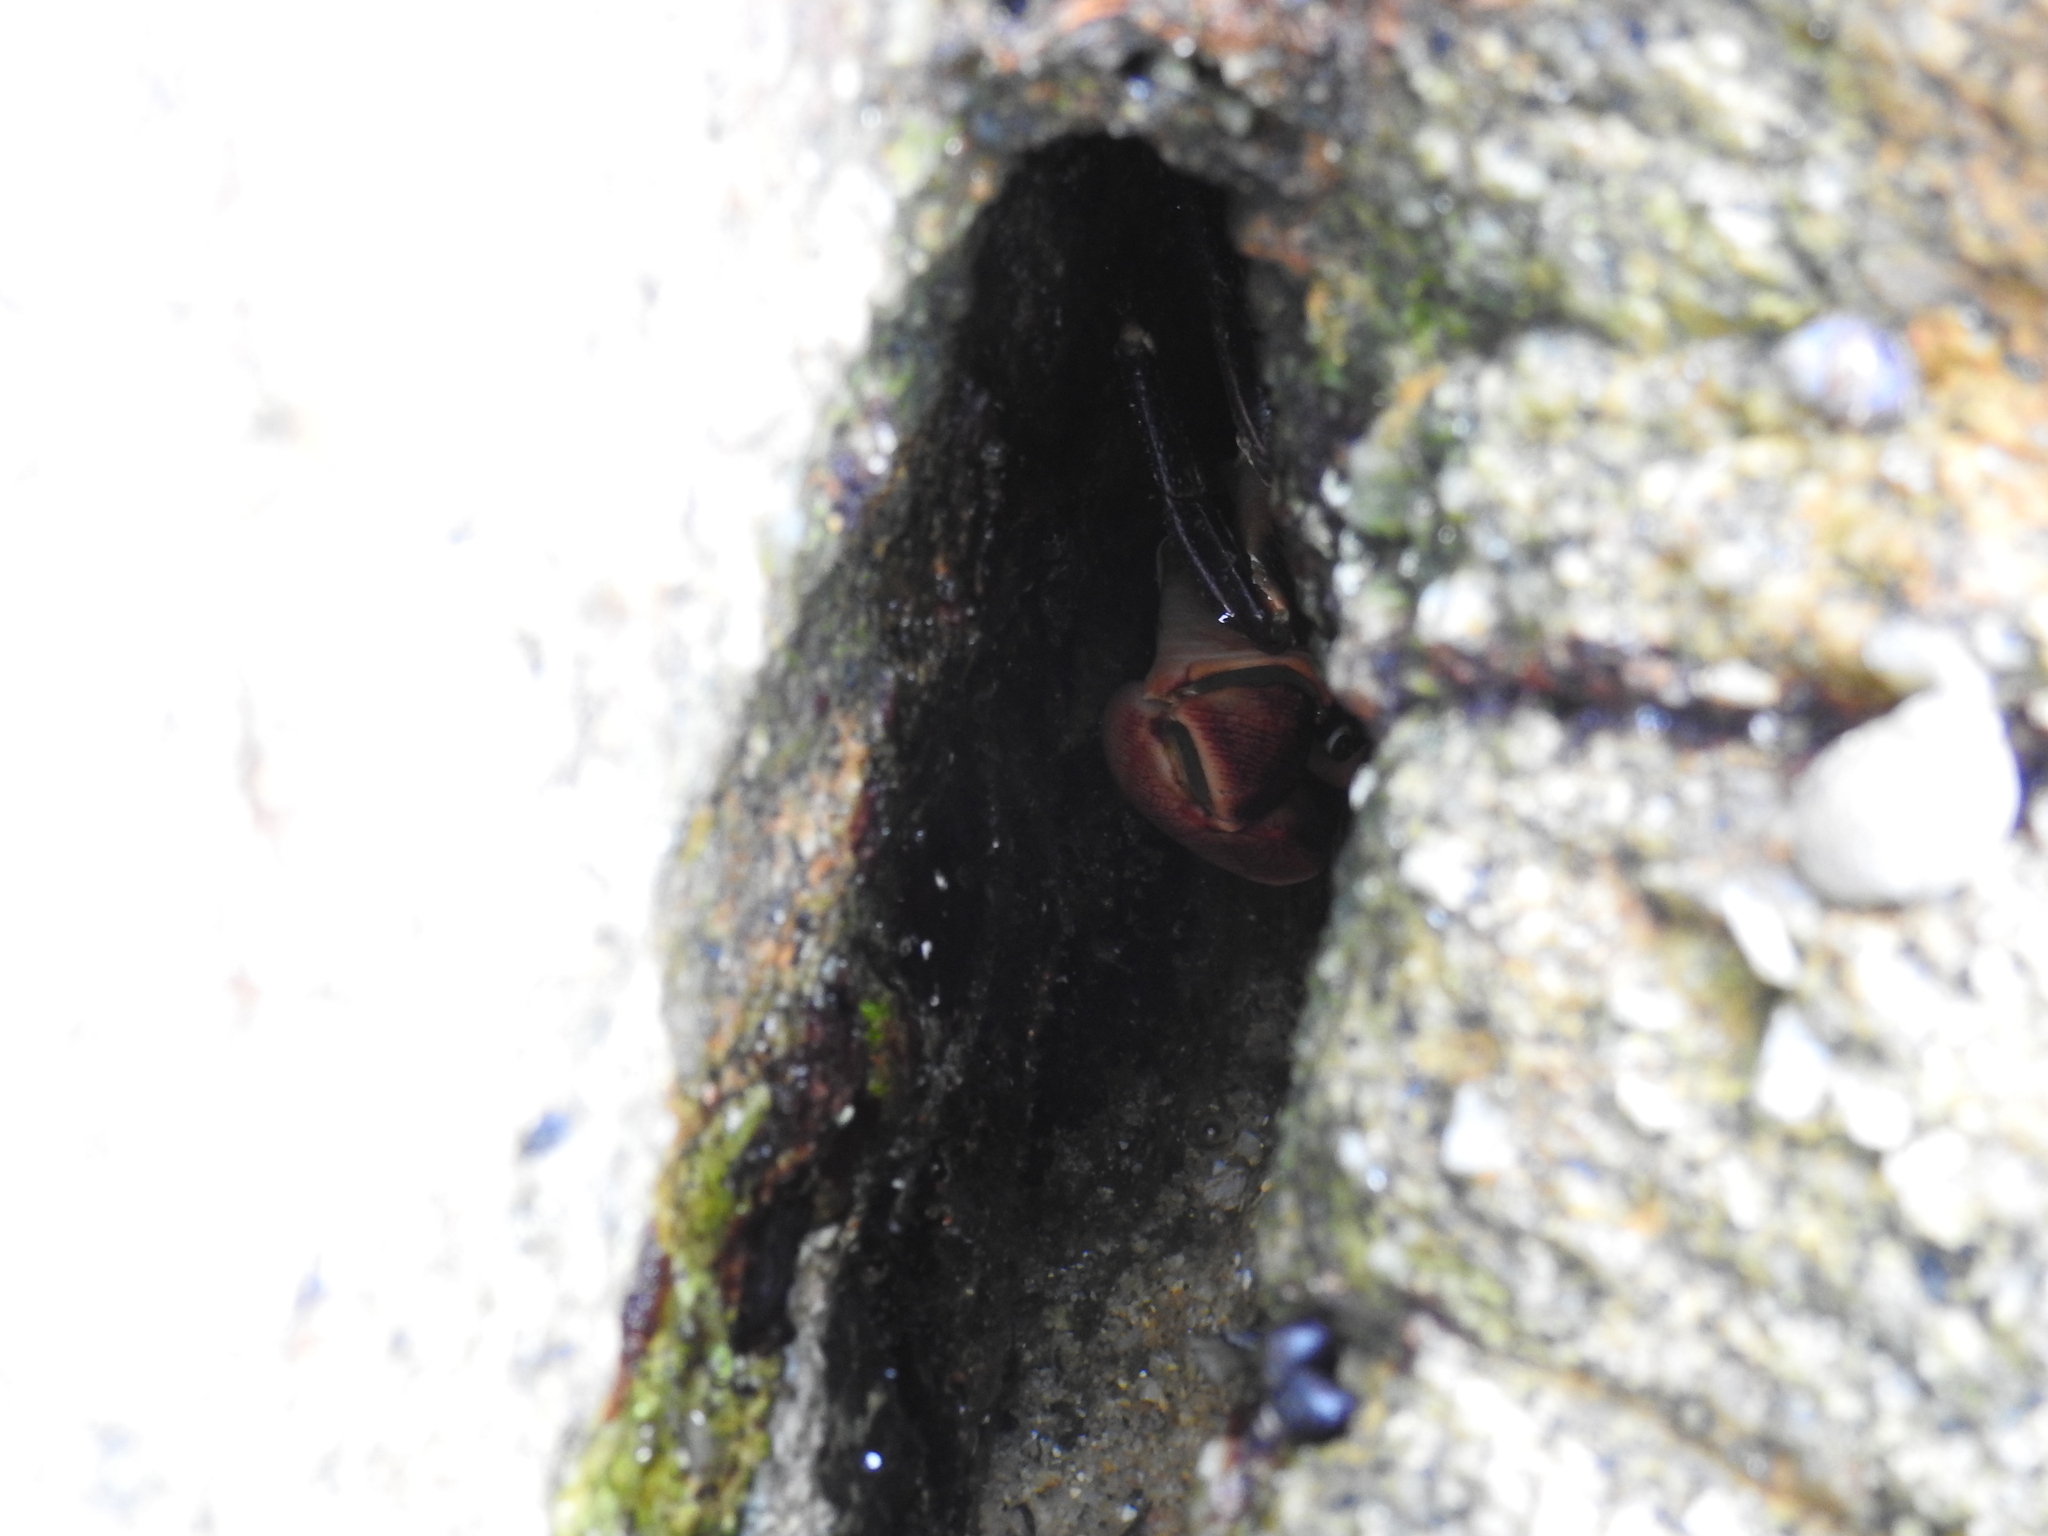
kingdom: Animalia
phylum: Arthropoda
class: Malacostraca
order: Decapoda
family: Grapsidae
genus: Pachygrapsus
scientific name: Pachygrapsus crassipes
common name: Striped shore crab
